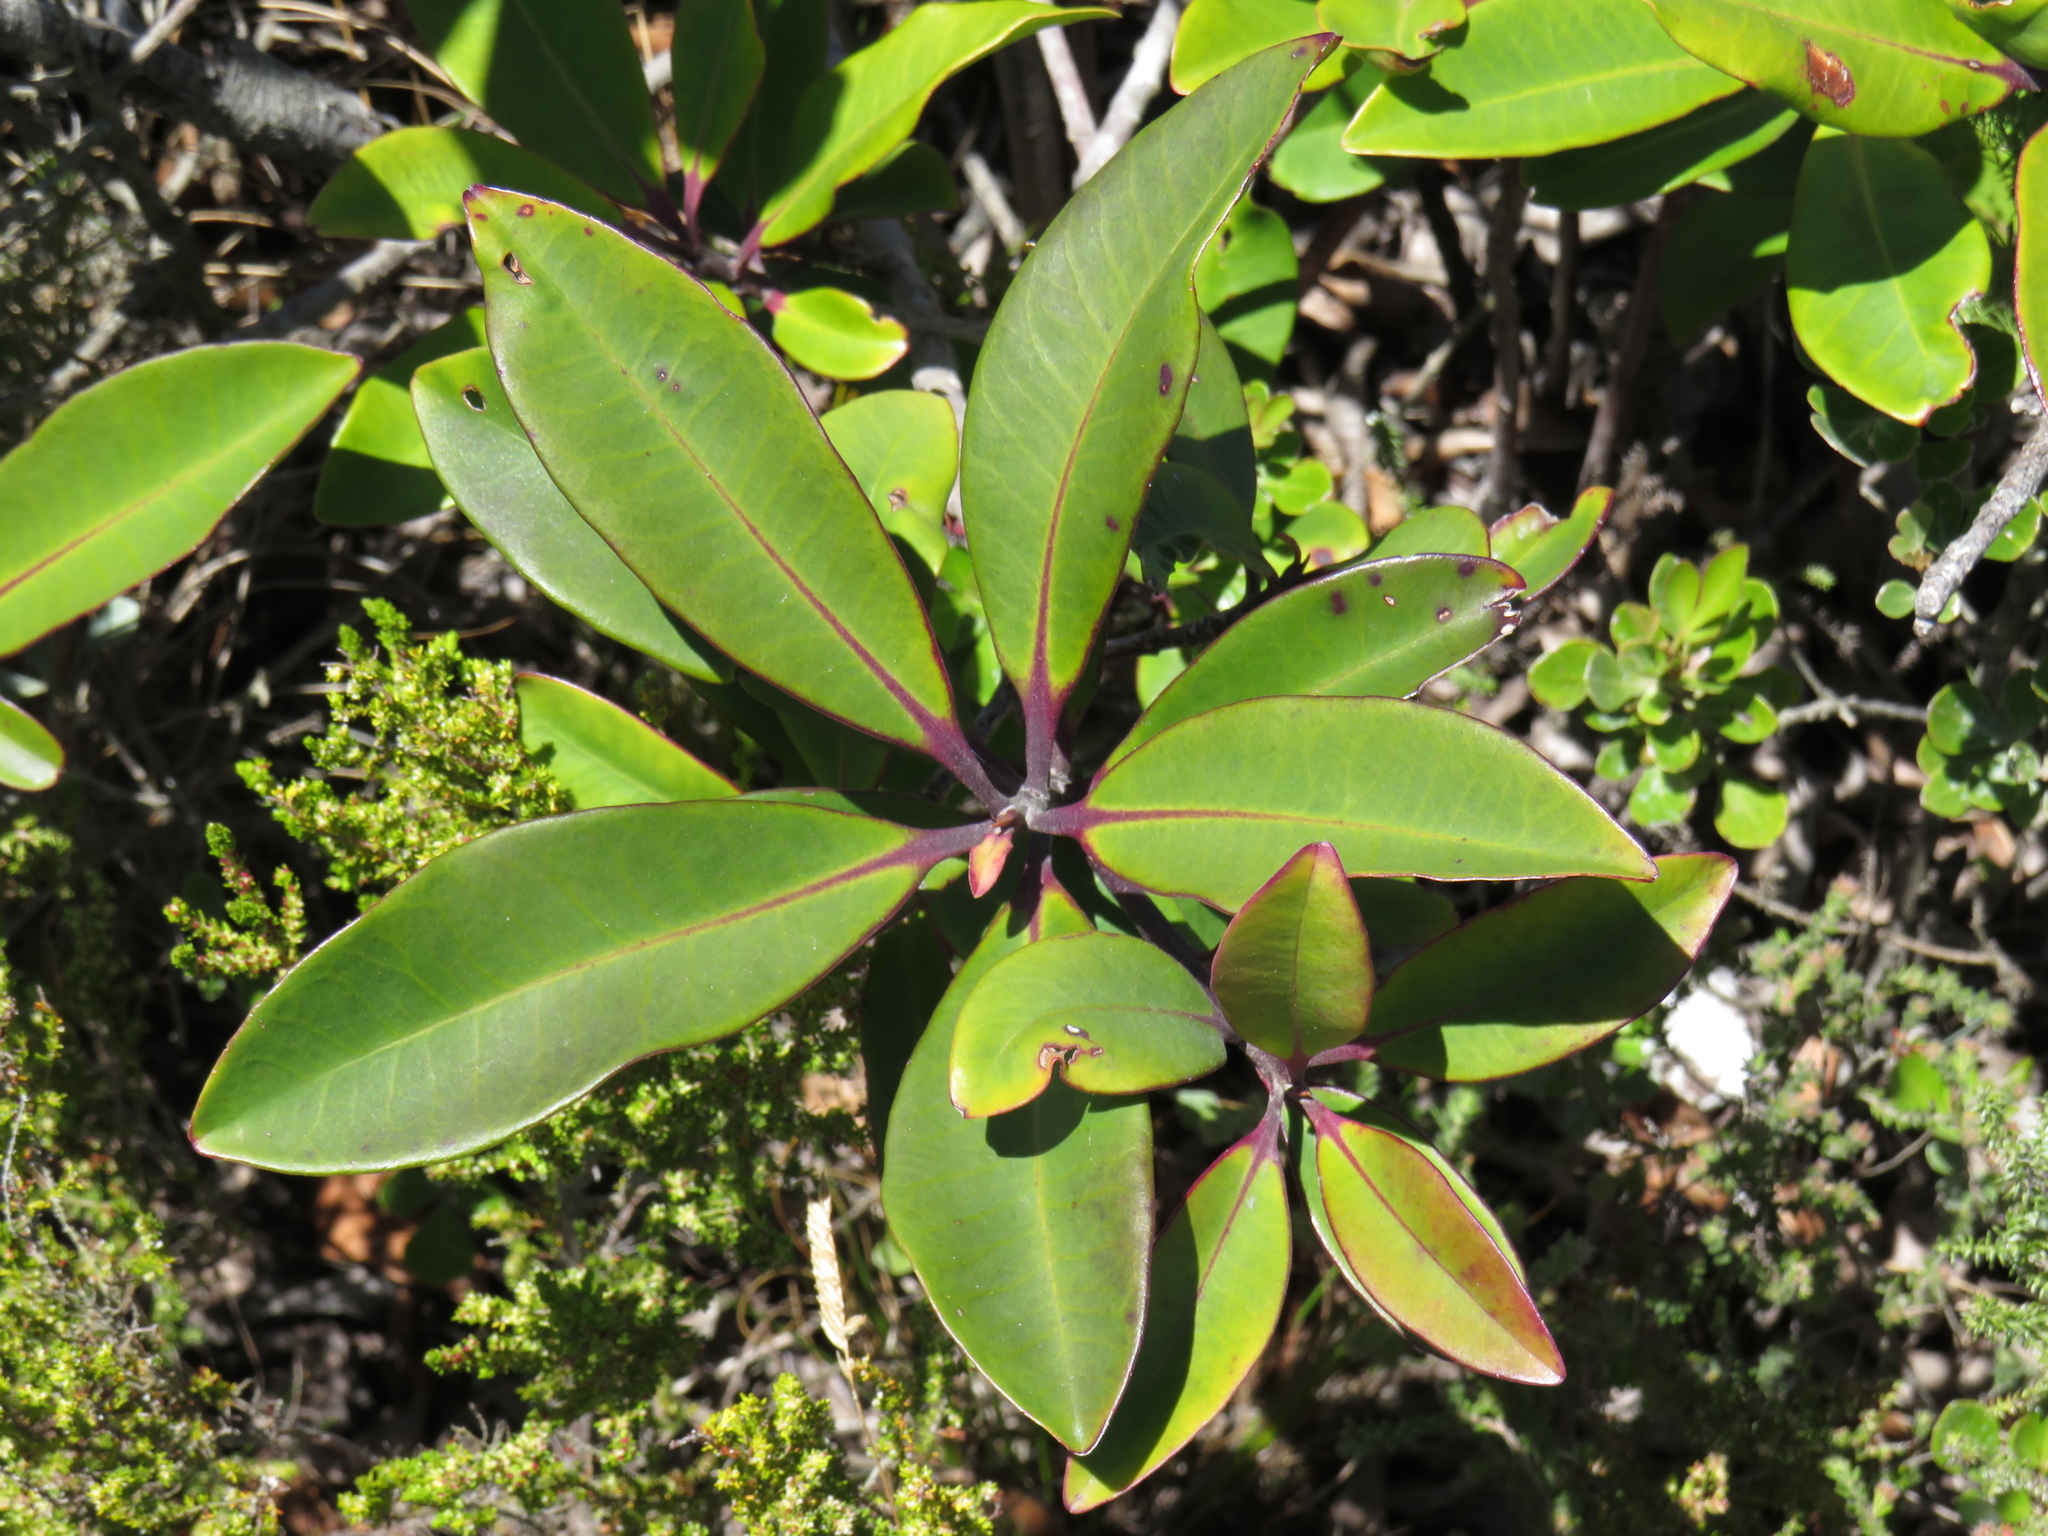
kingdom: Plantae
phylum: Tracheophyta
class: Magnoliopsida
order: Ericales
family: Primulaceae
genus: Myrsine
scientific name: Myrsine melanophloeos
